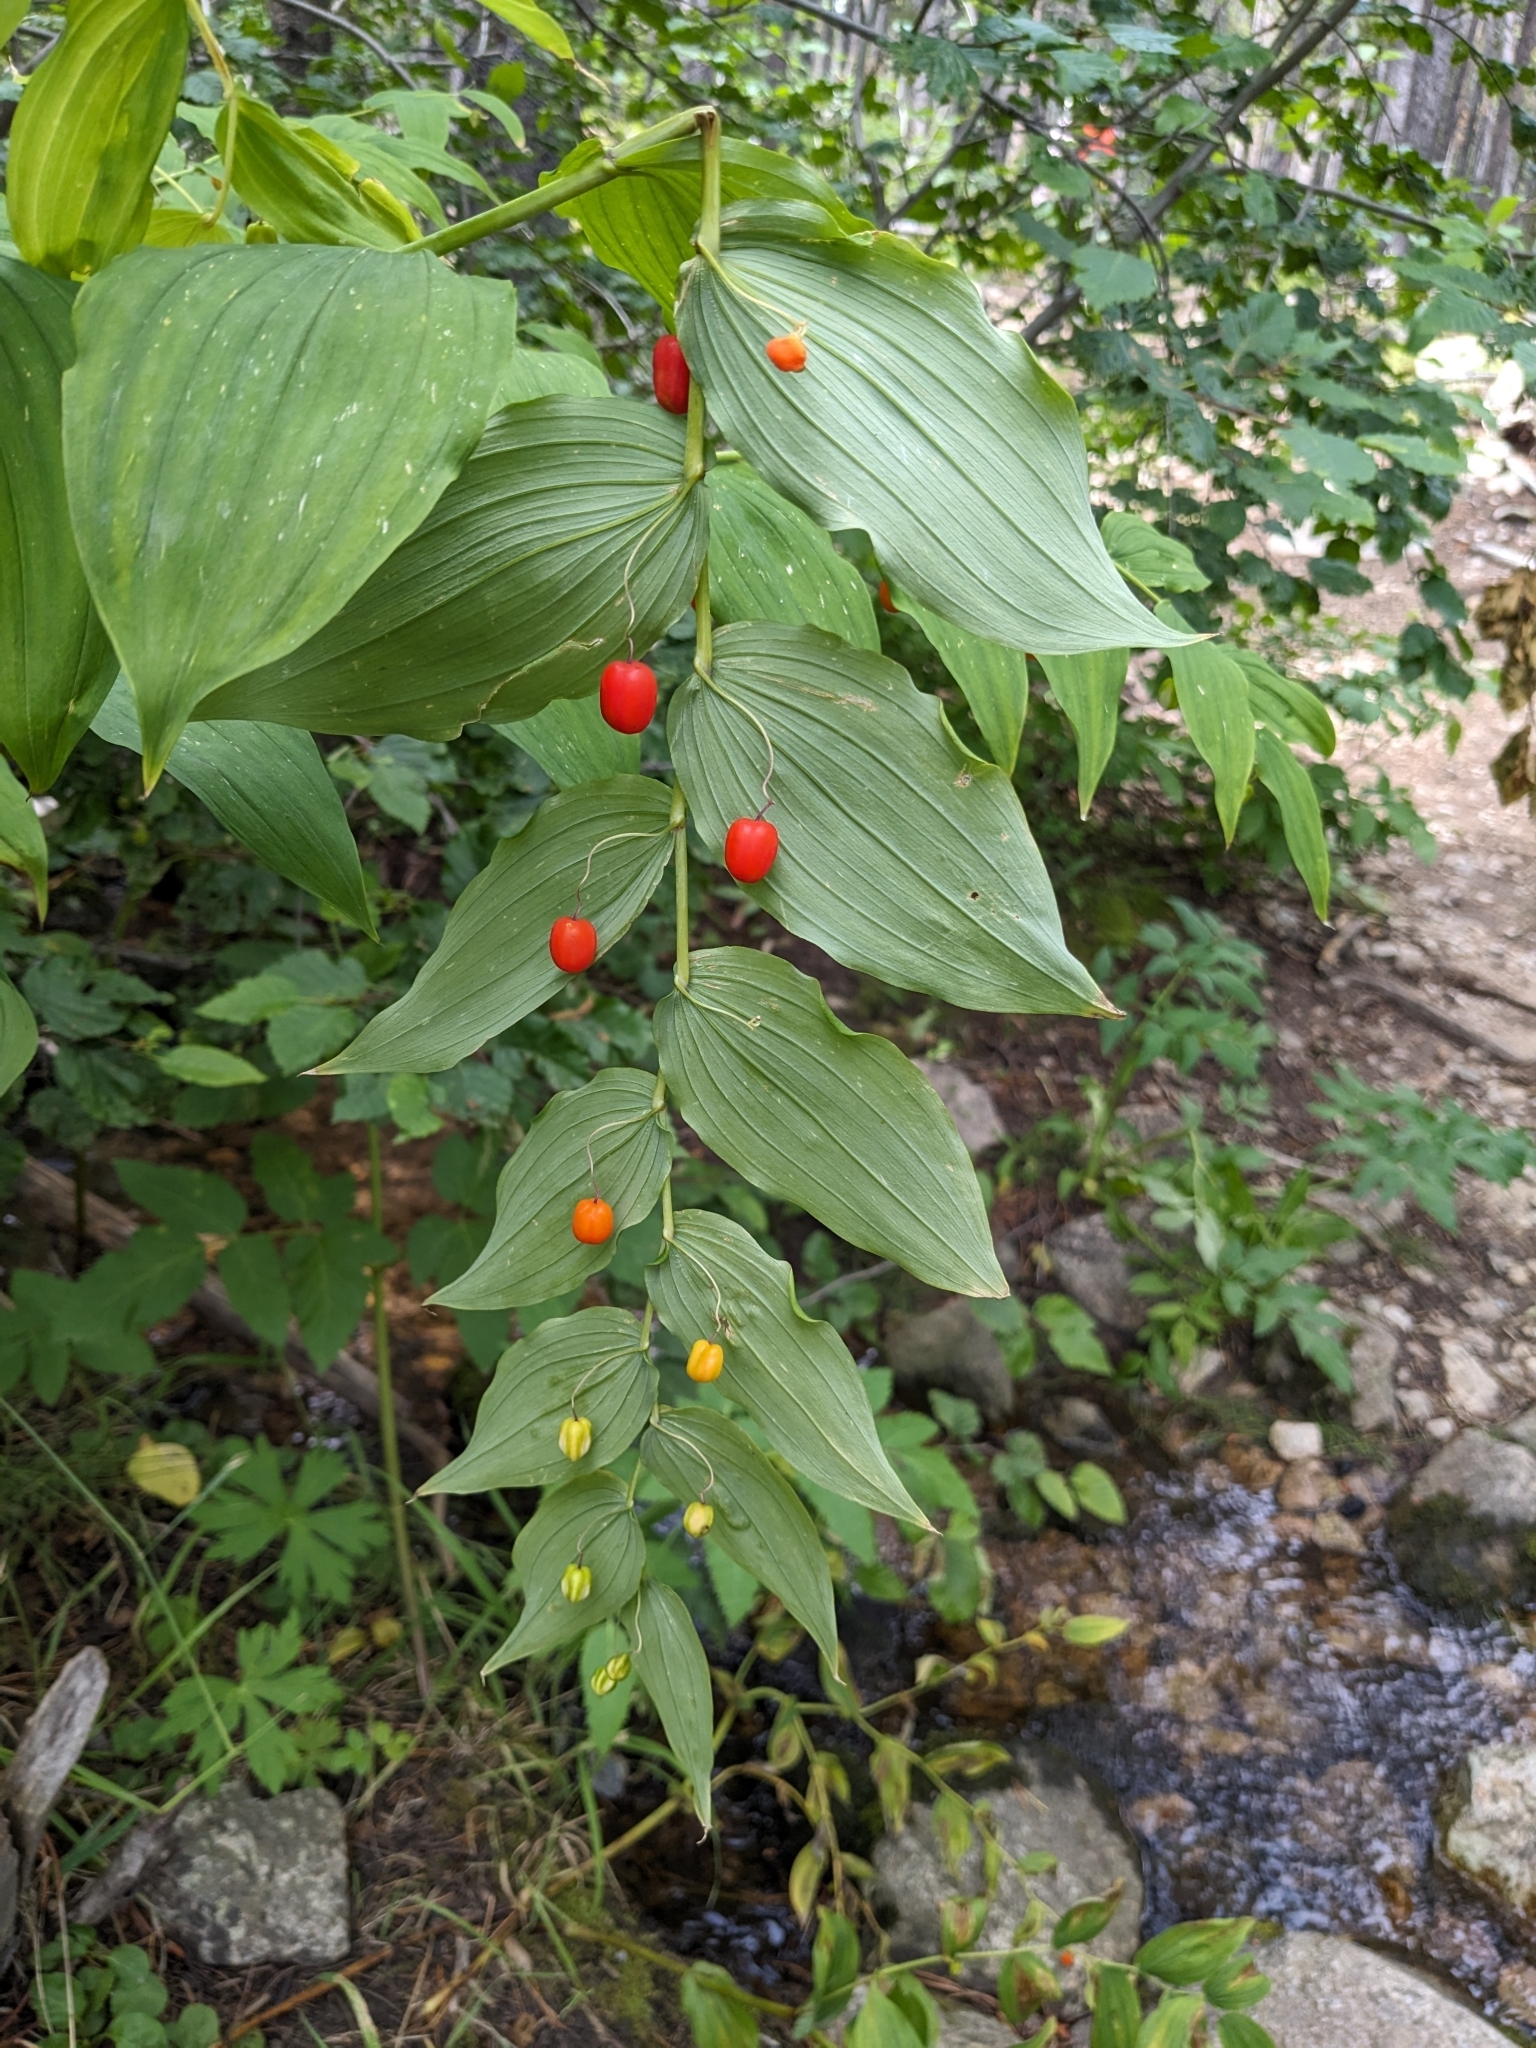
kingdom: Plantae
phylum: Tracheophyta
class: Liliopsida
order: Liliales
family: Liliaceae
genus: Streptopus
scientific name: Streptopus amplexifolius
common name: Clasp twisted stalk
